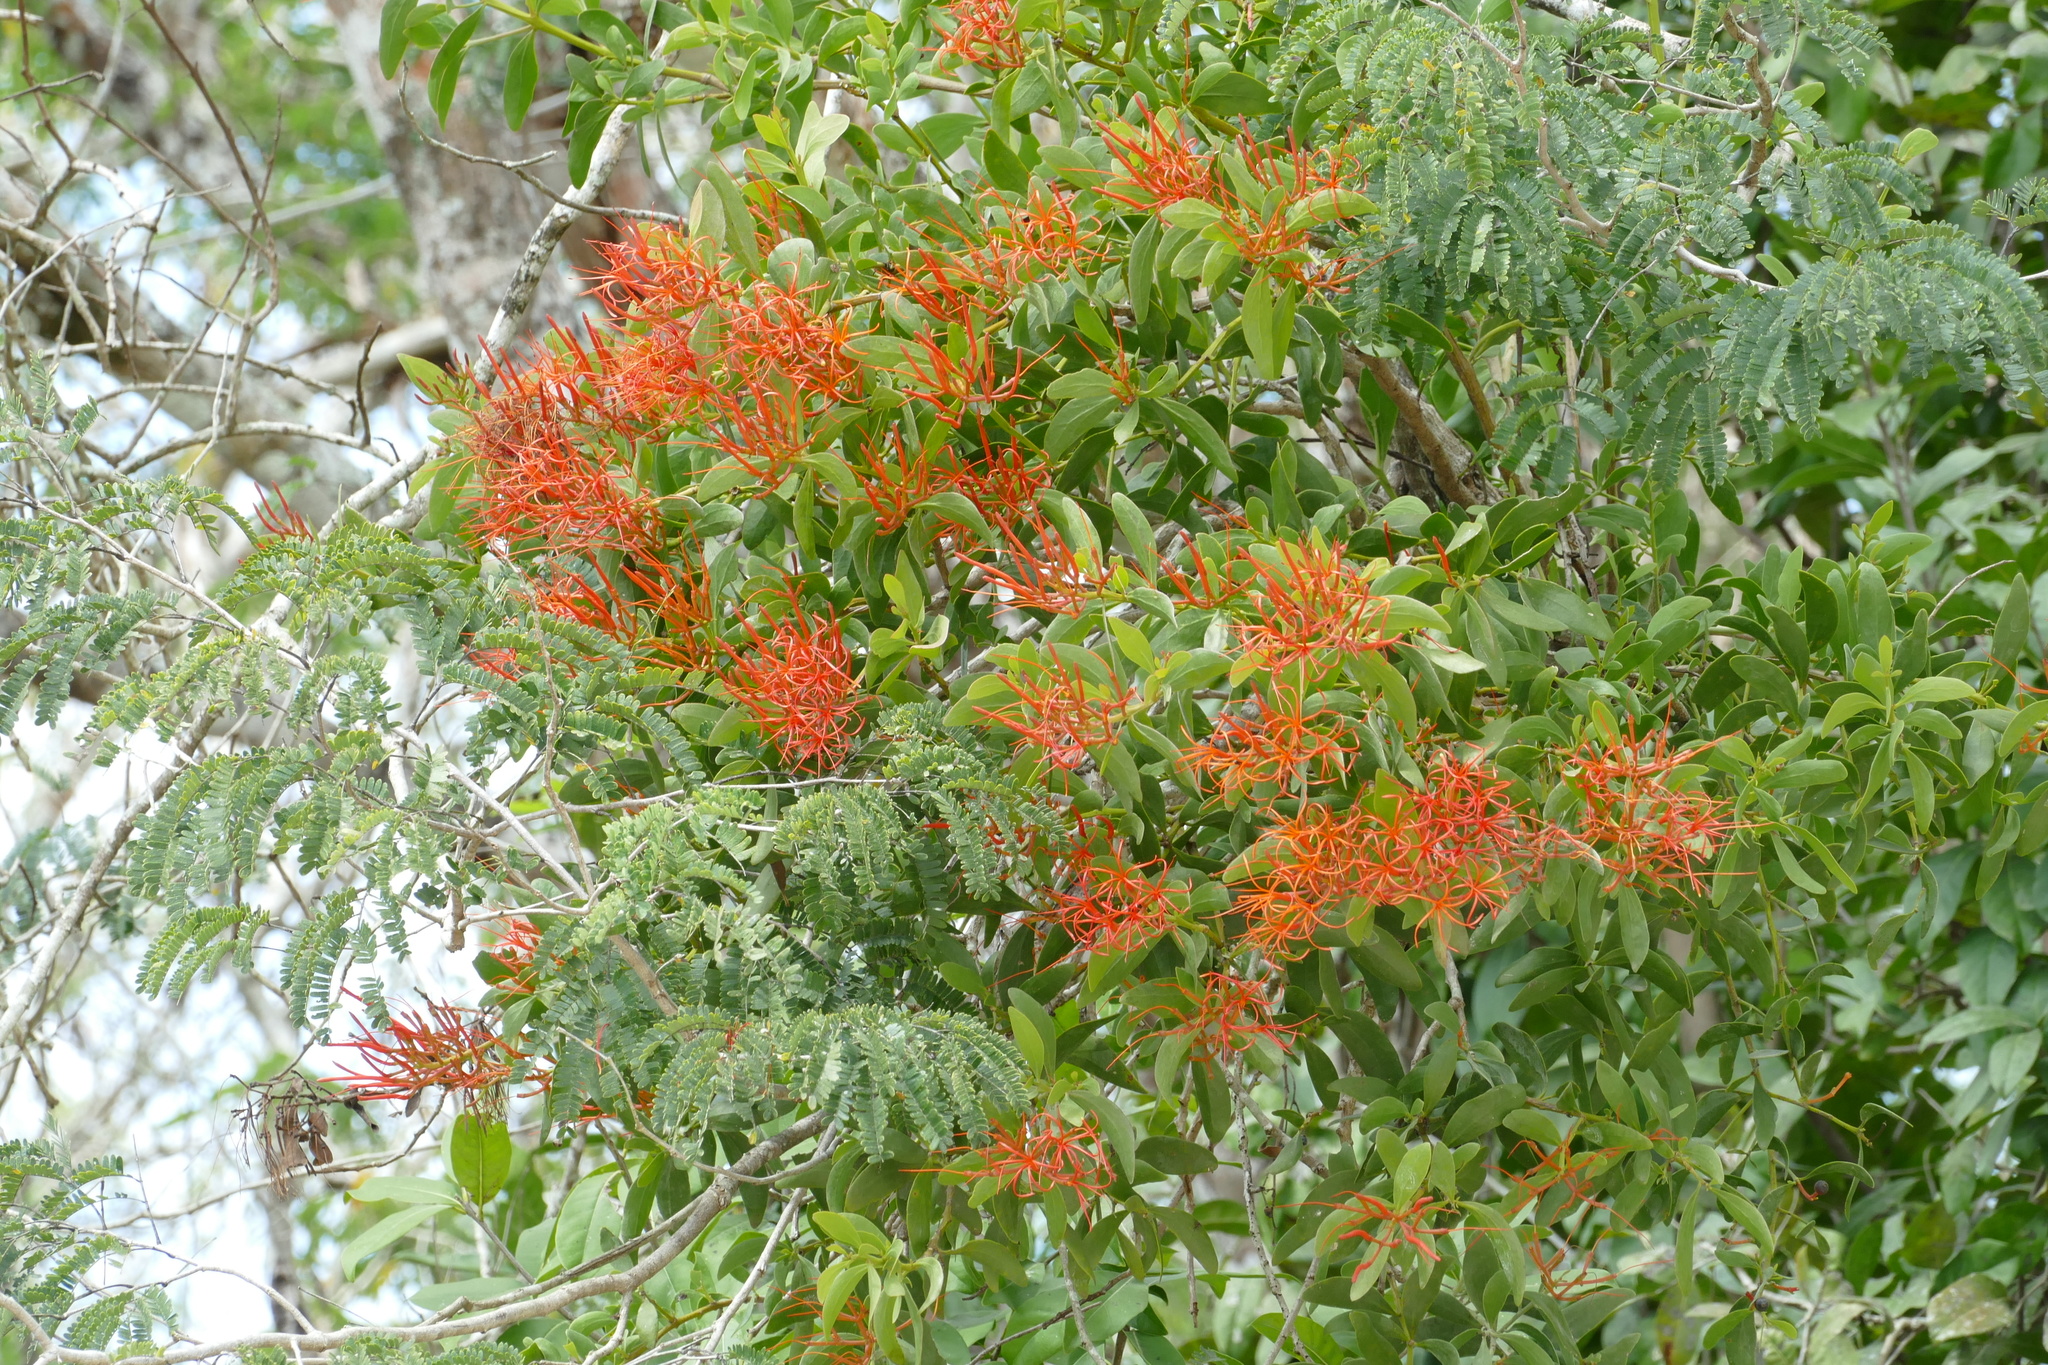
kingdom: Plantae
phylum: Tracheophyta
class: Magnoliopsida
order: Santalales
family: Loranthaceae
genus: Psittacanthus
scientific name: Psittacanthus mayanus
